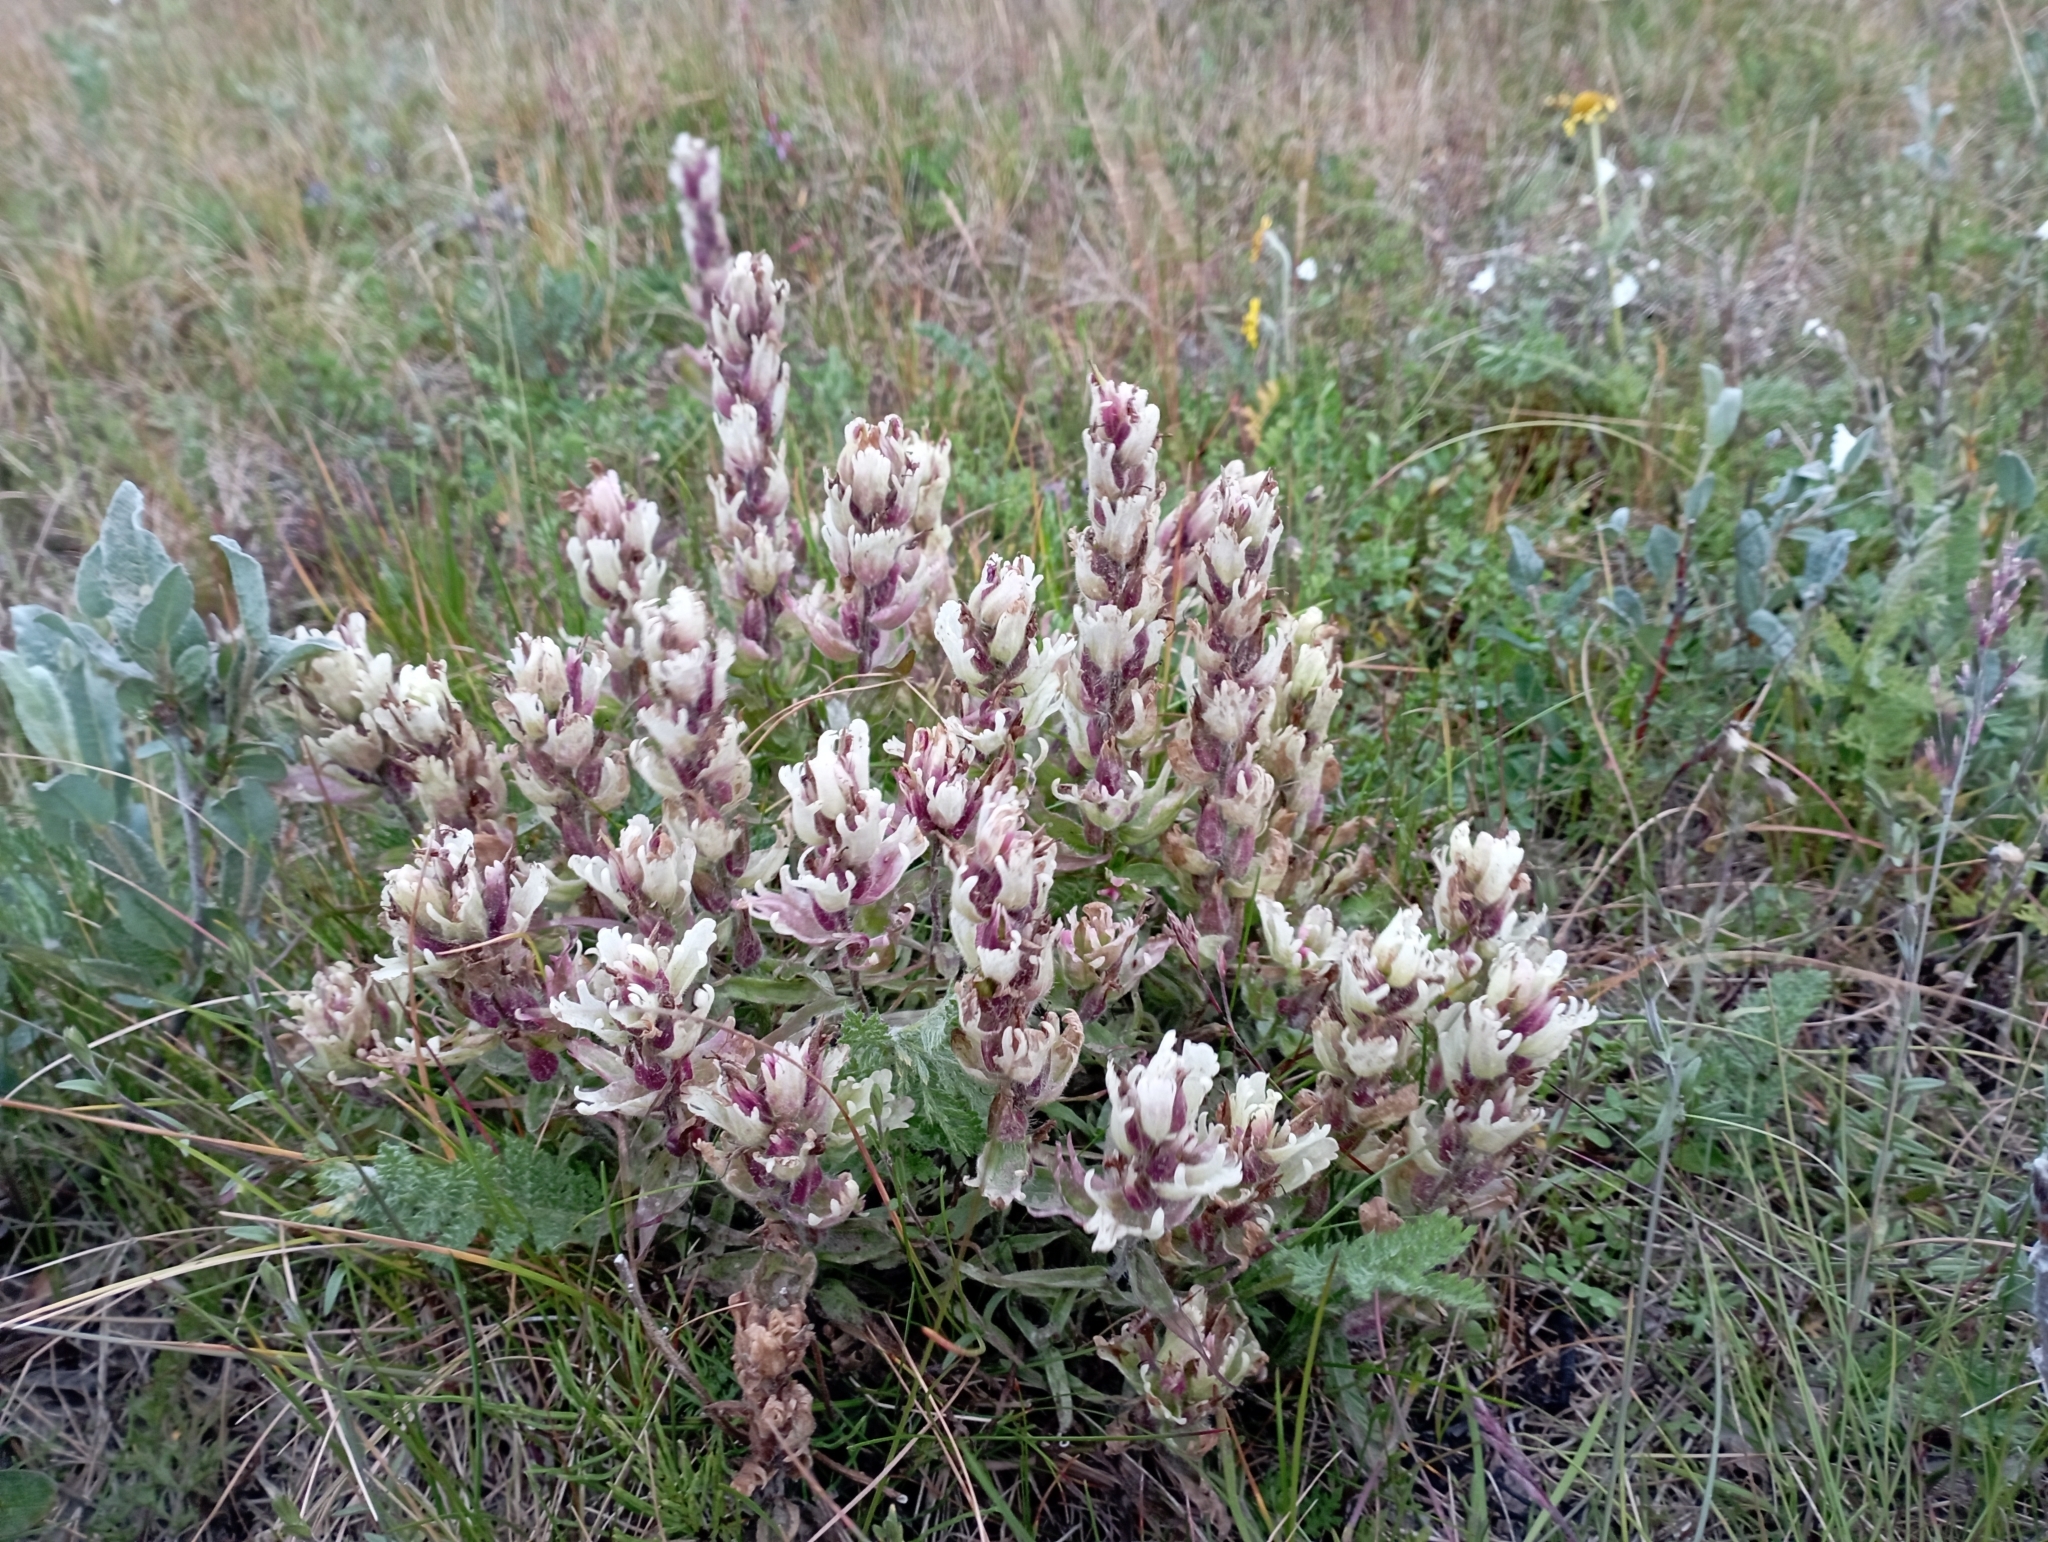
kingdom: Plantae
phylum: Tracheophyta
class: Magnoliopsida
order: Lamiales
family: Orobanchaceae
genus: Castilleja
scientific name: Castilleja arctica
